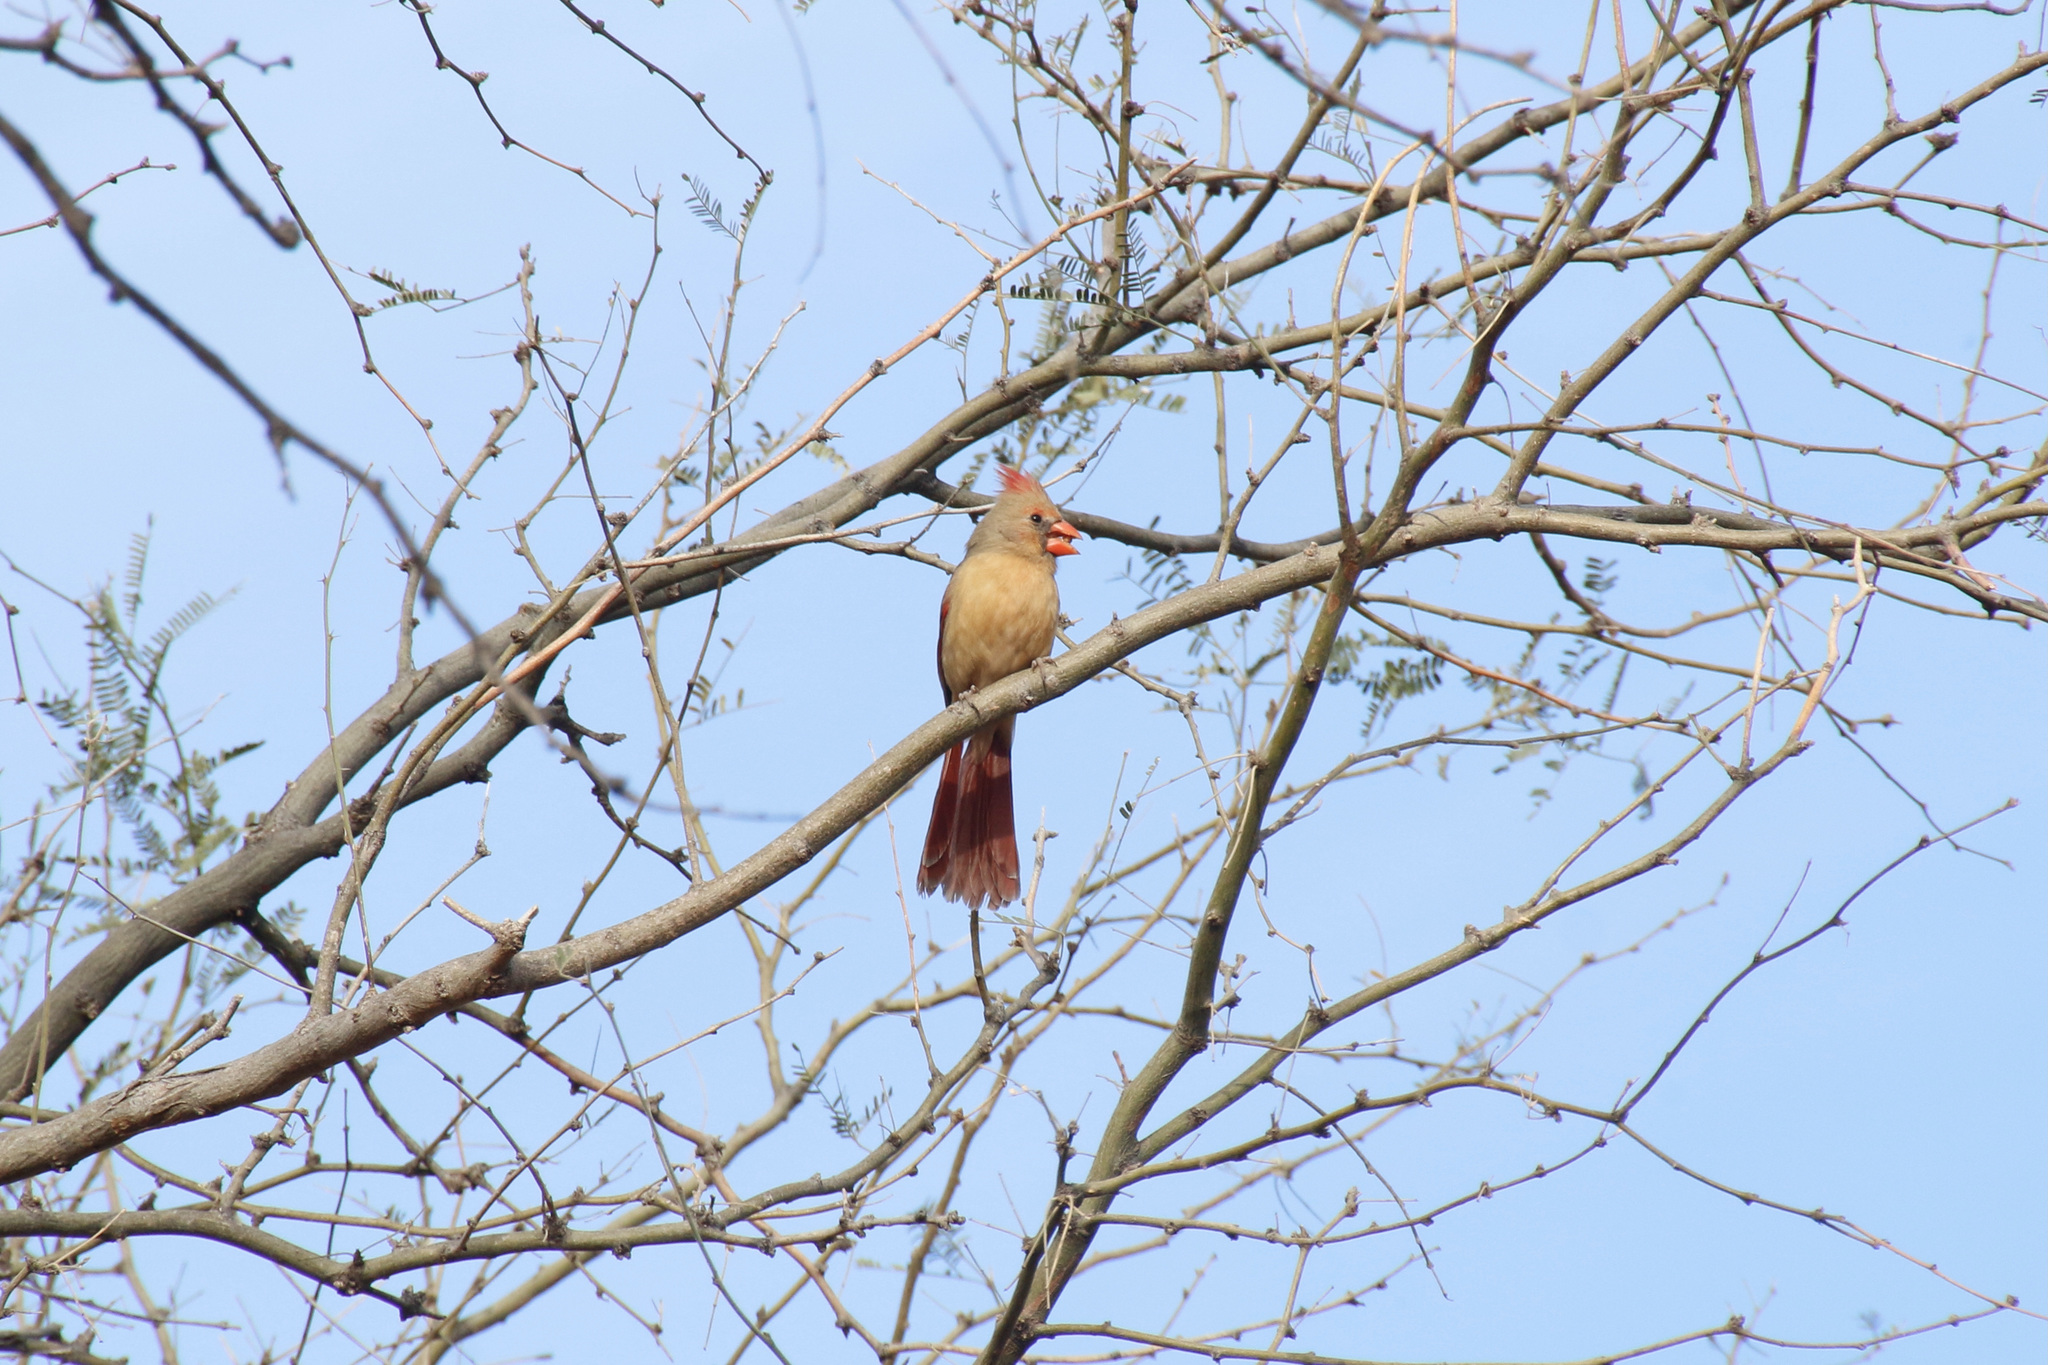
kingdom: Animalia
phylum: Chordata
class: Aves
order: Passeriformes
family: Cardinalidae
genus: Cardinalis
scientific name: Cardinalis cardinalis
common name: Northern cardinal
